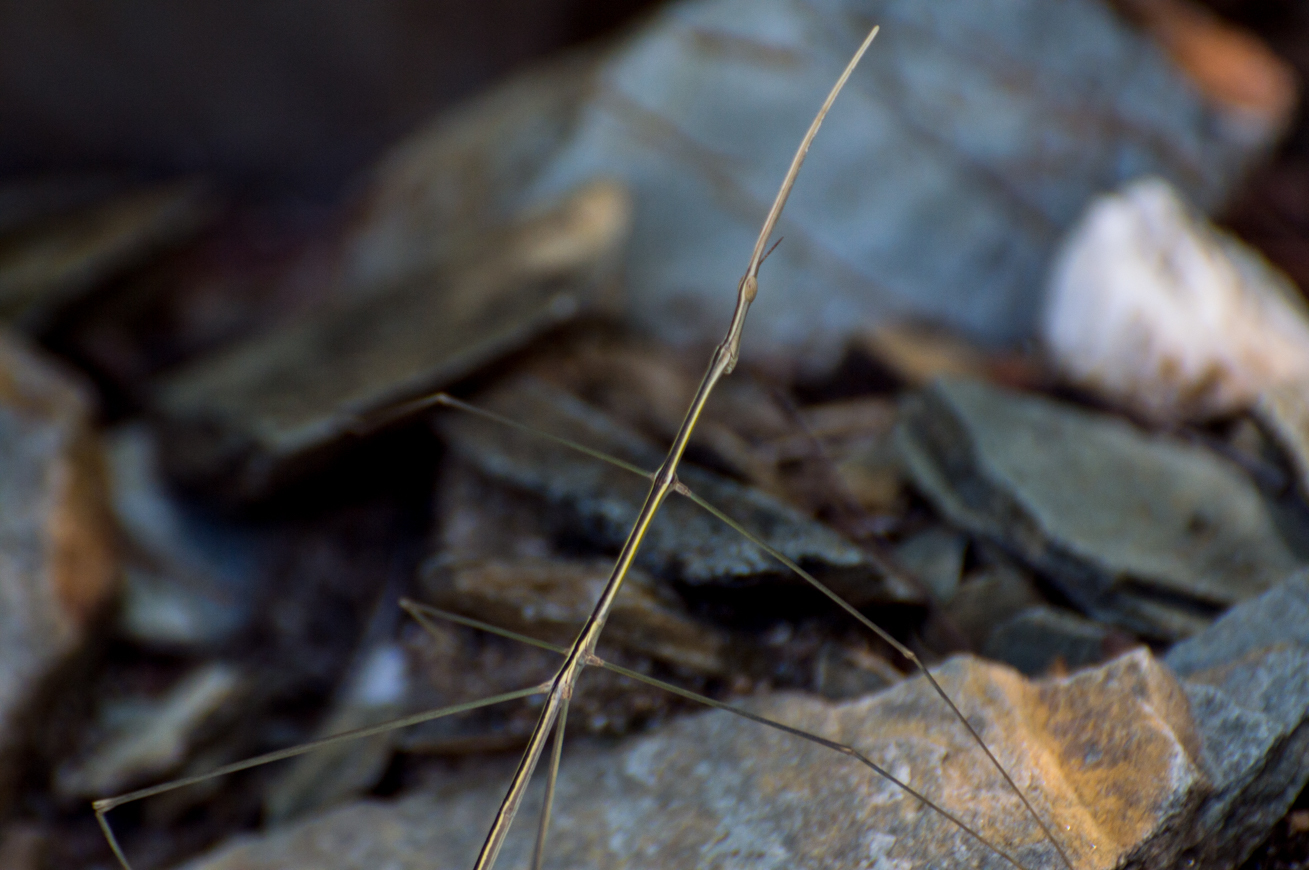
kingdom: Animalia
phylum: Arthropoda
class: Insecta
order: Orthoptera
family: Proscopiidae
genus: Carphoproscopia
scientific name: Carphoproscopia lancea
